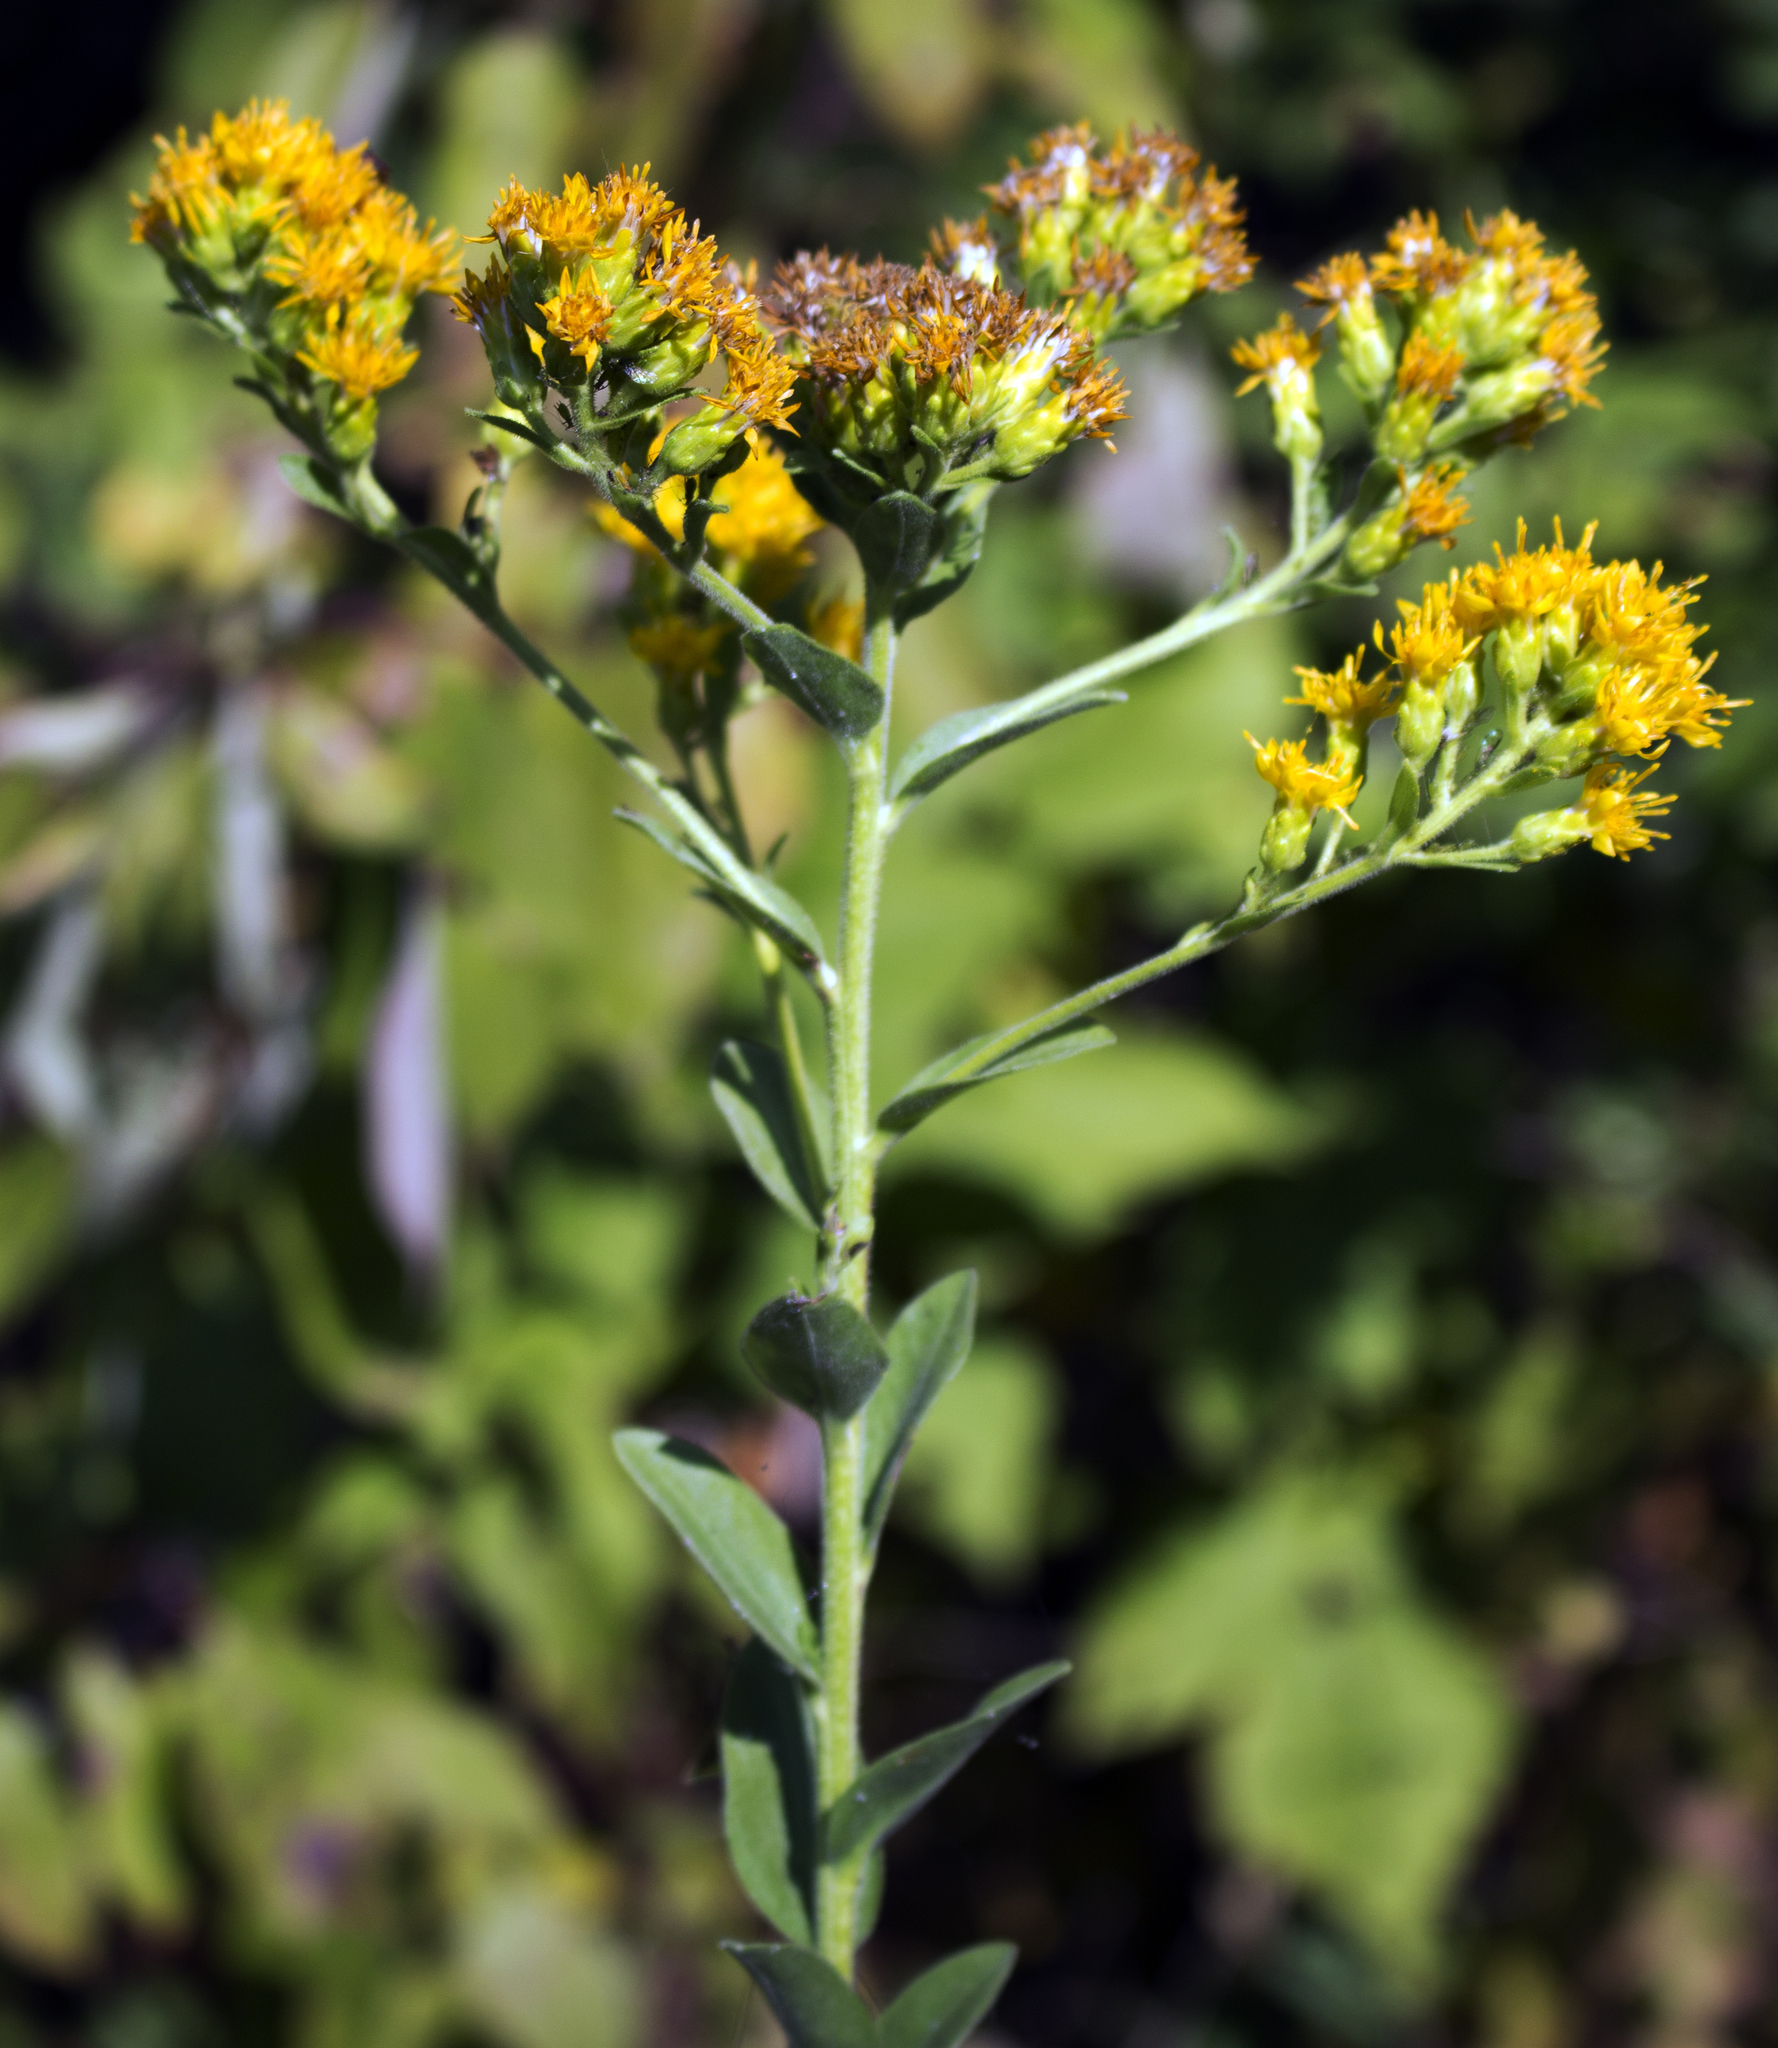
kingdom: Plantae
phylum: Tracheophyta
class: Magnoliopsida
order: Asterales
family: Asteraceae
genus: Solidago
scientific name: Solidago rigida
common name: Rigid goldenrod
